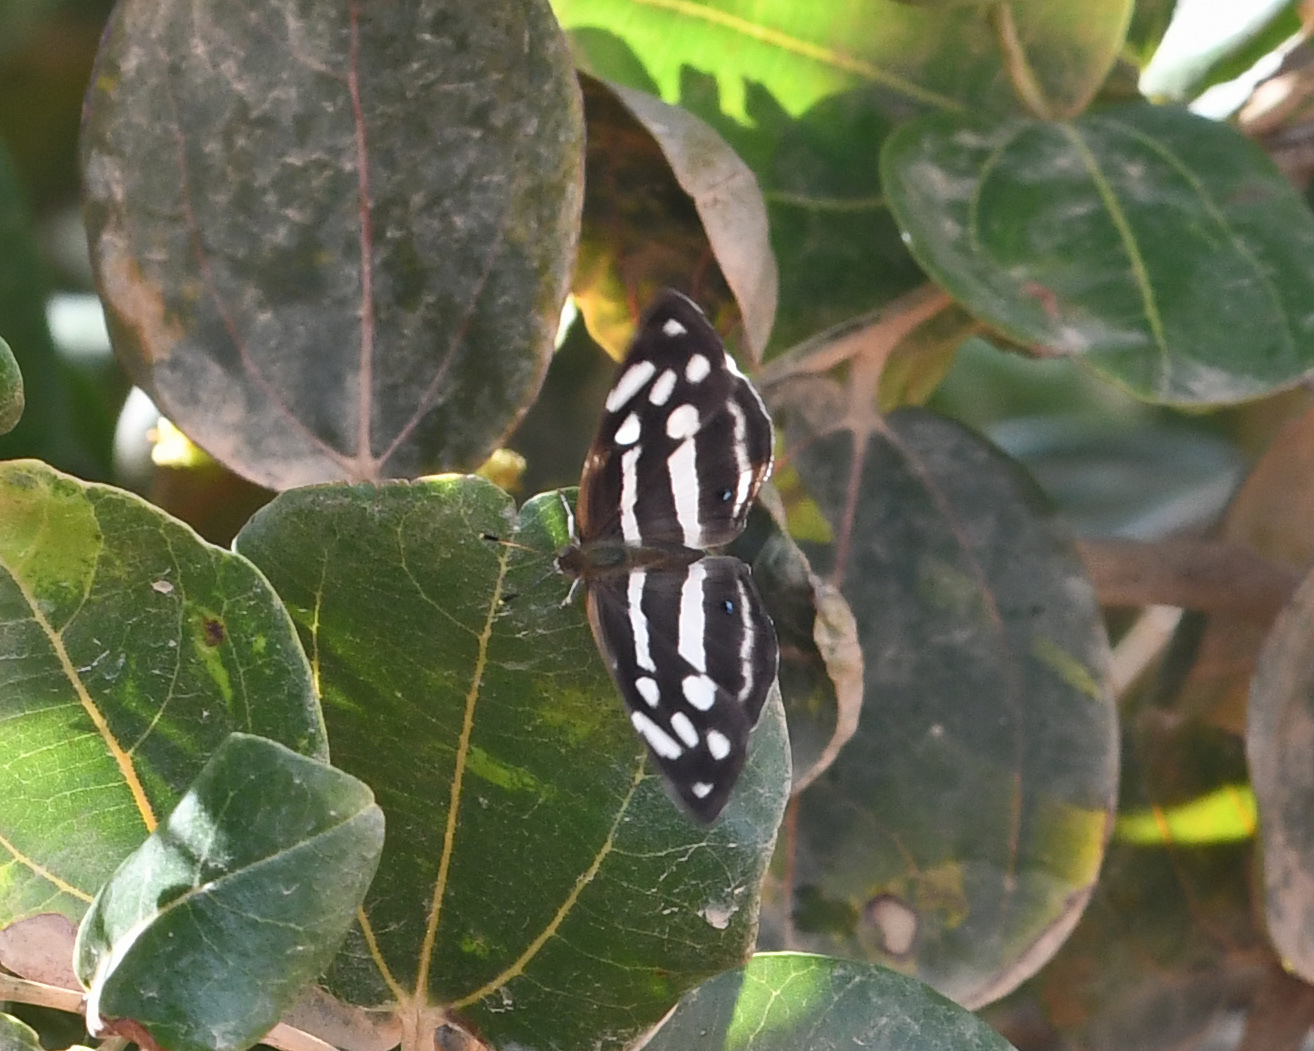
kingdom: Animalia
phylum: Arthropoda
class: Insecta
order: Lepidoptera
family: Nymphalidae
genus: Dynamine
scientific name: Dynamine mylitta
